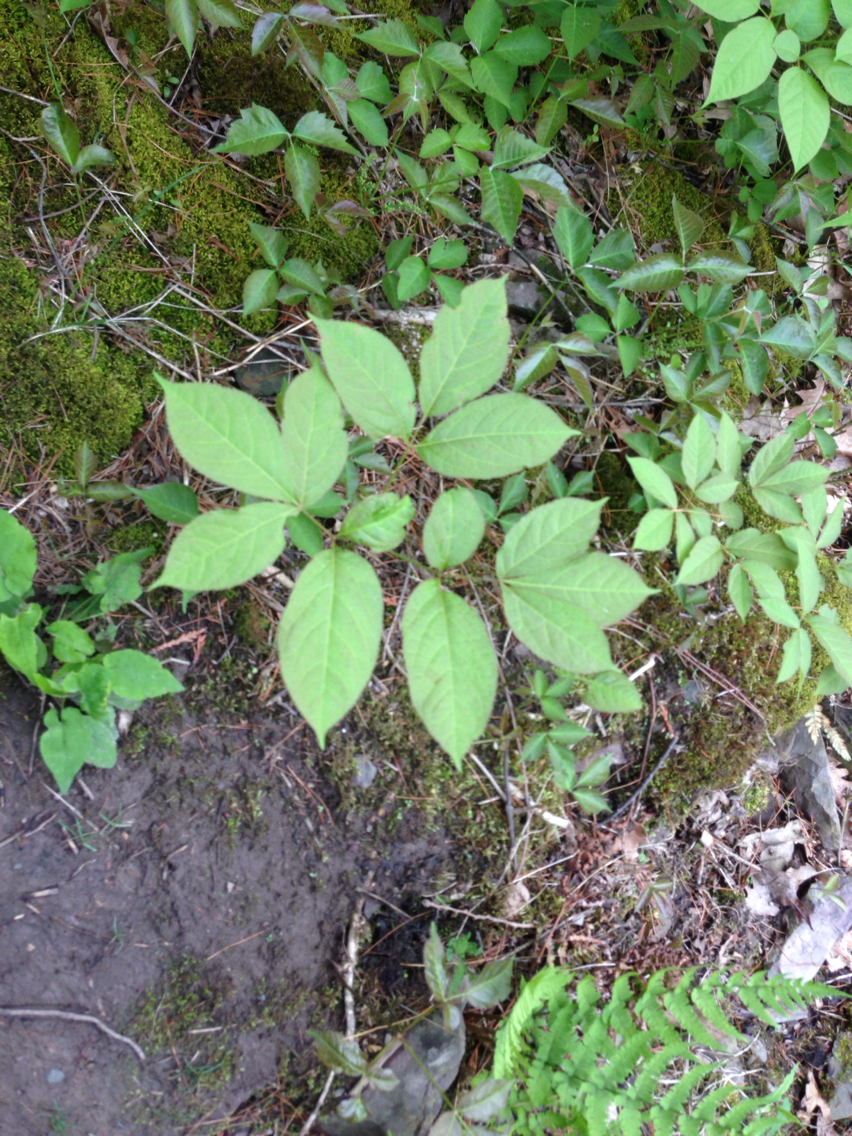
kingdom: Plantae
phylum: Tracheophyta
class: Magnoliopsida
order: Apiales
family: Araliaceae
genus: Aralia
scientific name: Aralia nudicaulis
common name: Wild sarsaparilla
